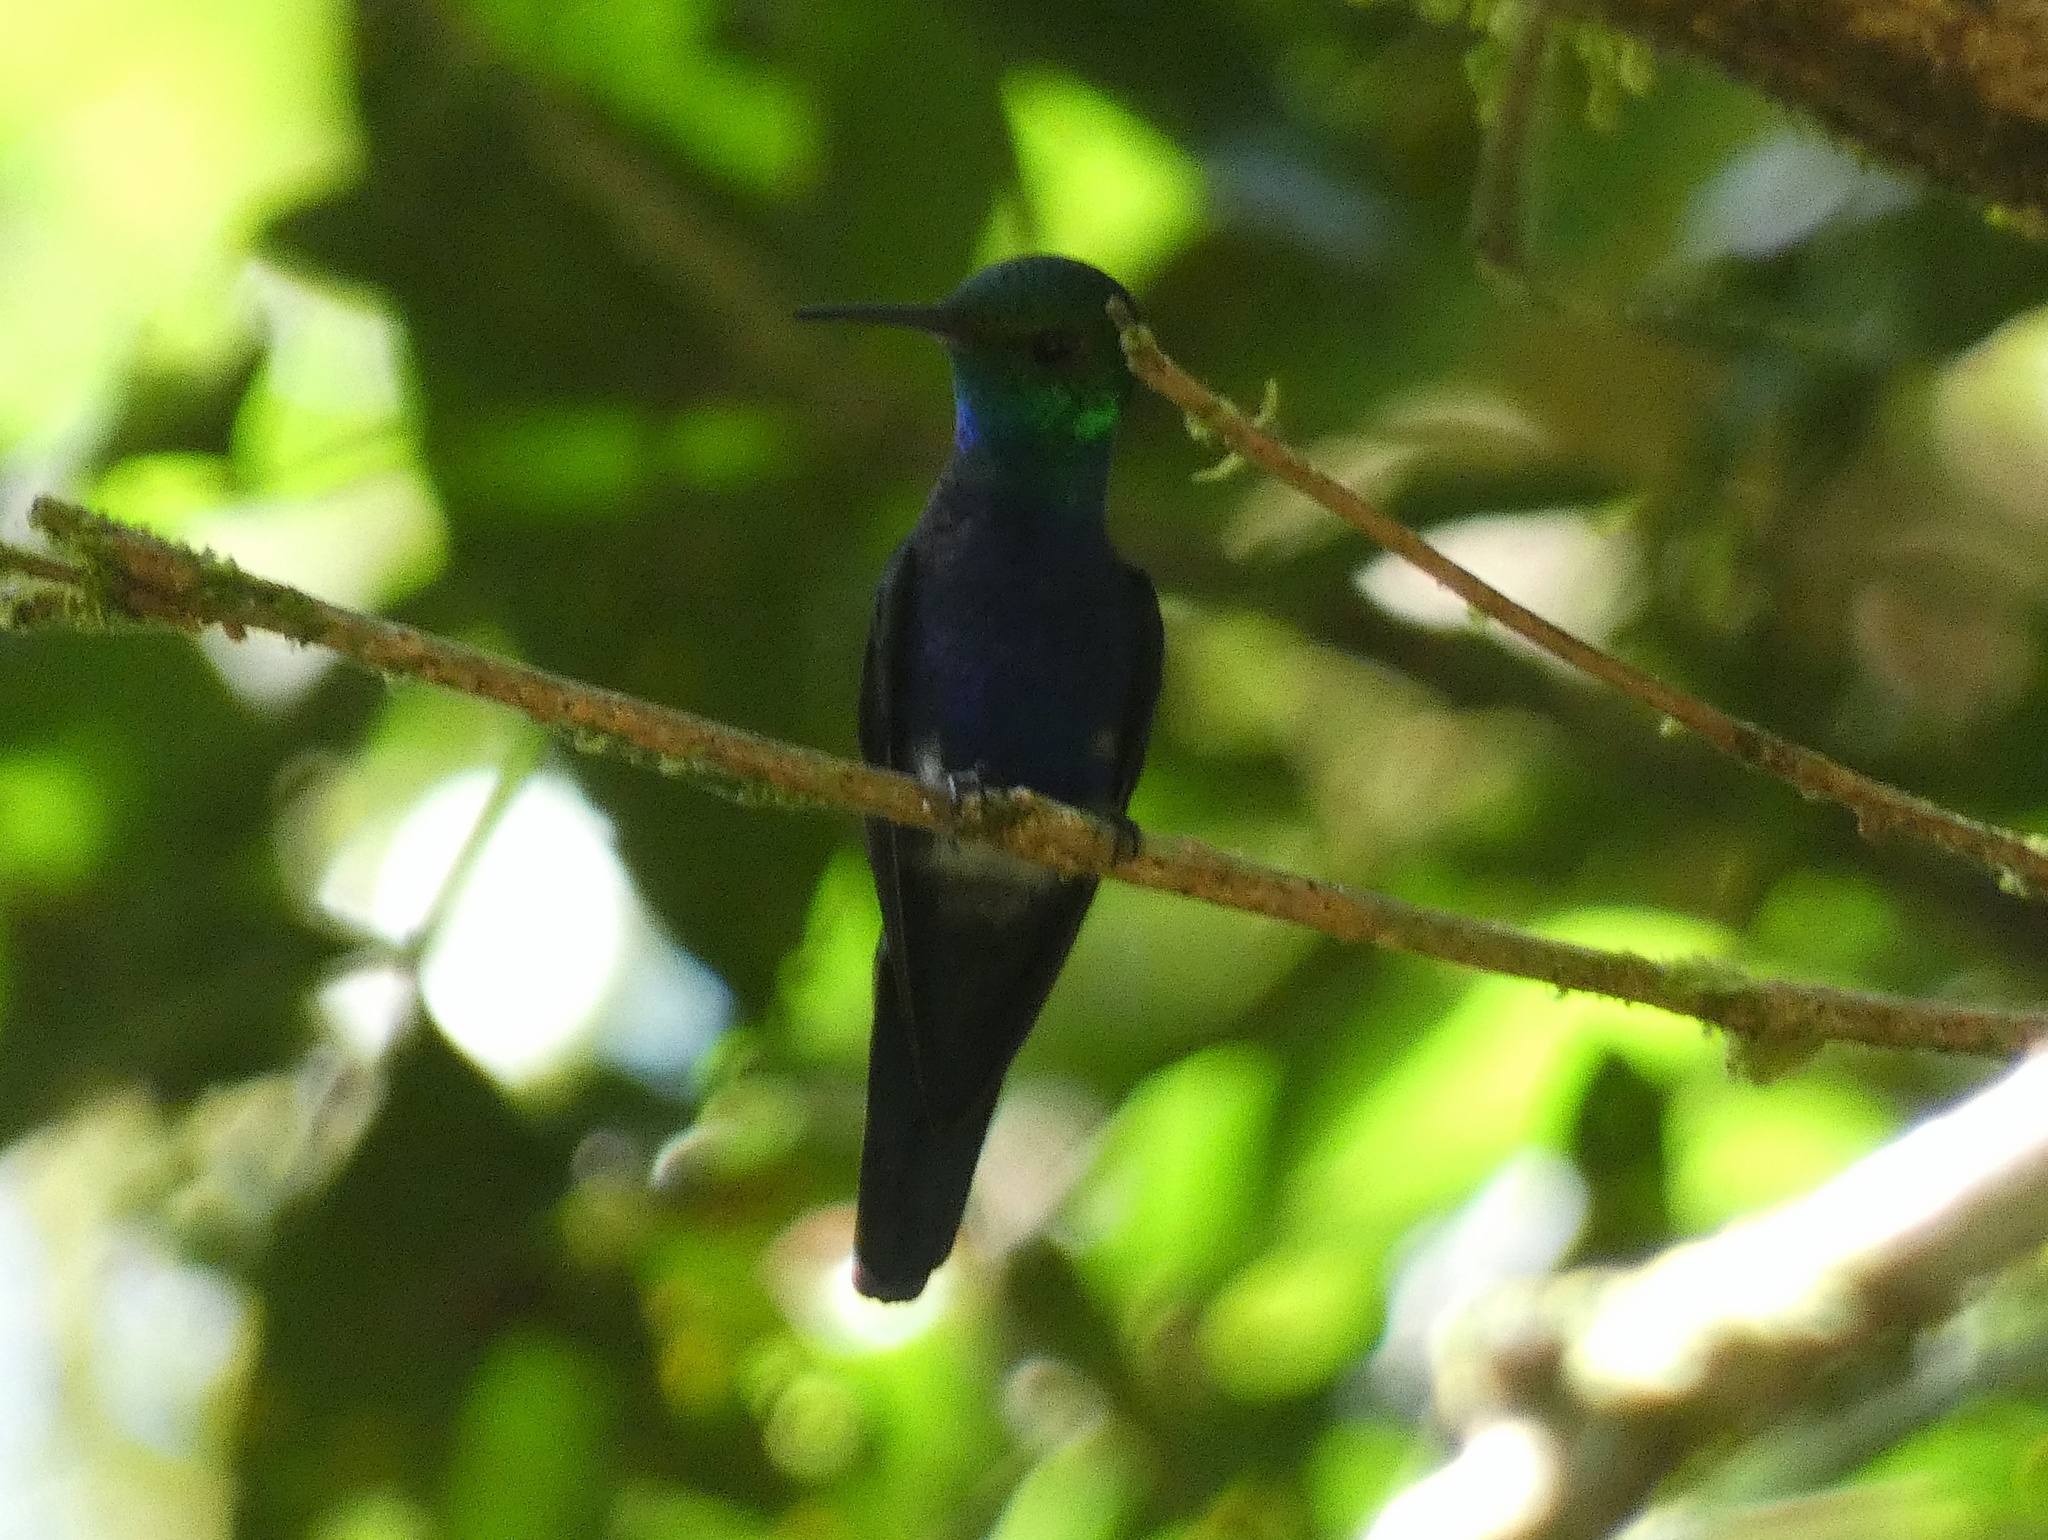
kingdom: Animalia
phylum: Chordata
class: Aves
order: Apodiformes
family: Trochilidae
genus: Thalurania
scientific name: Thalurania colombica
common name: Crowned woodnymph
